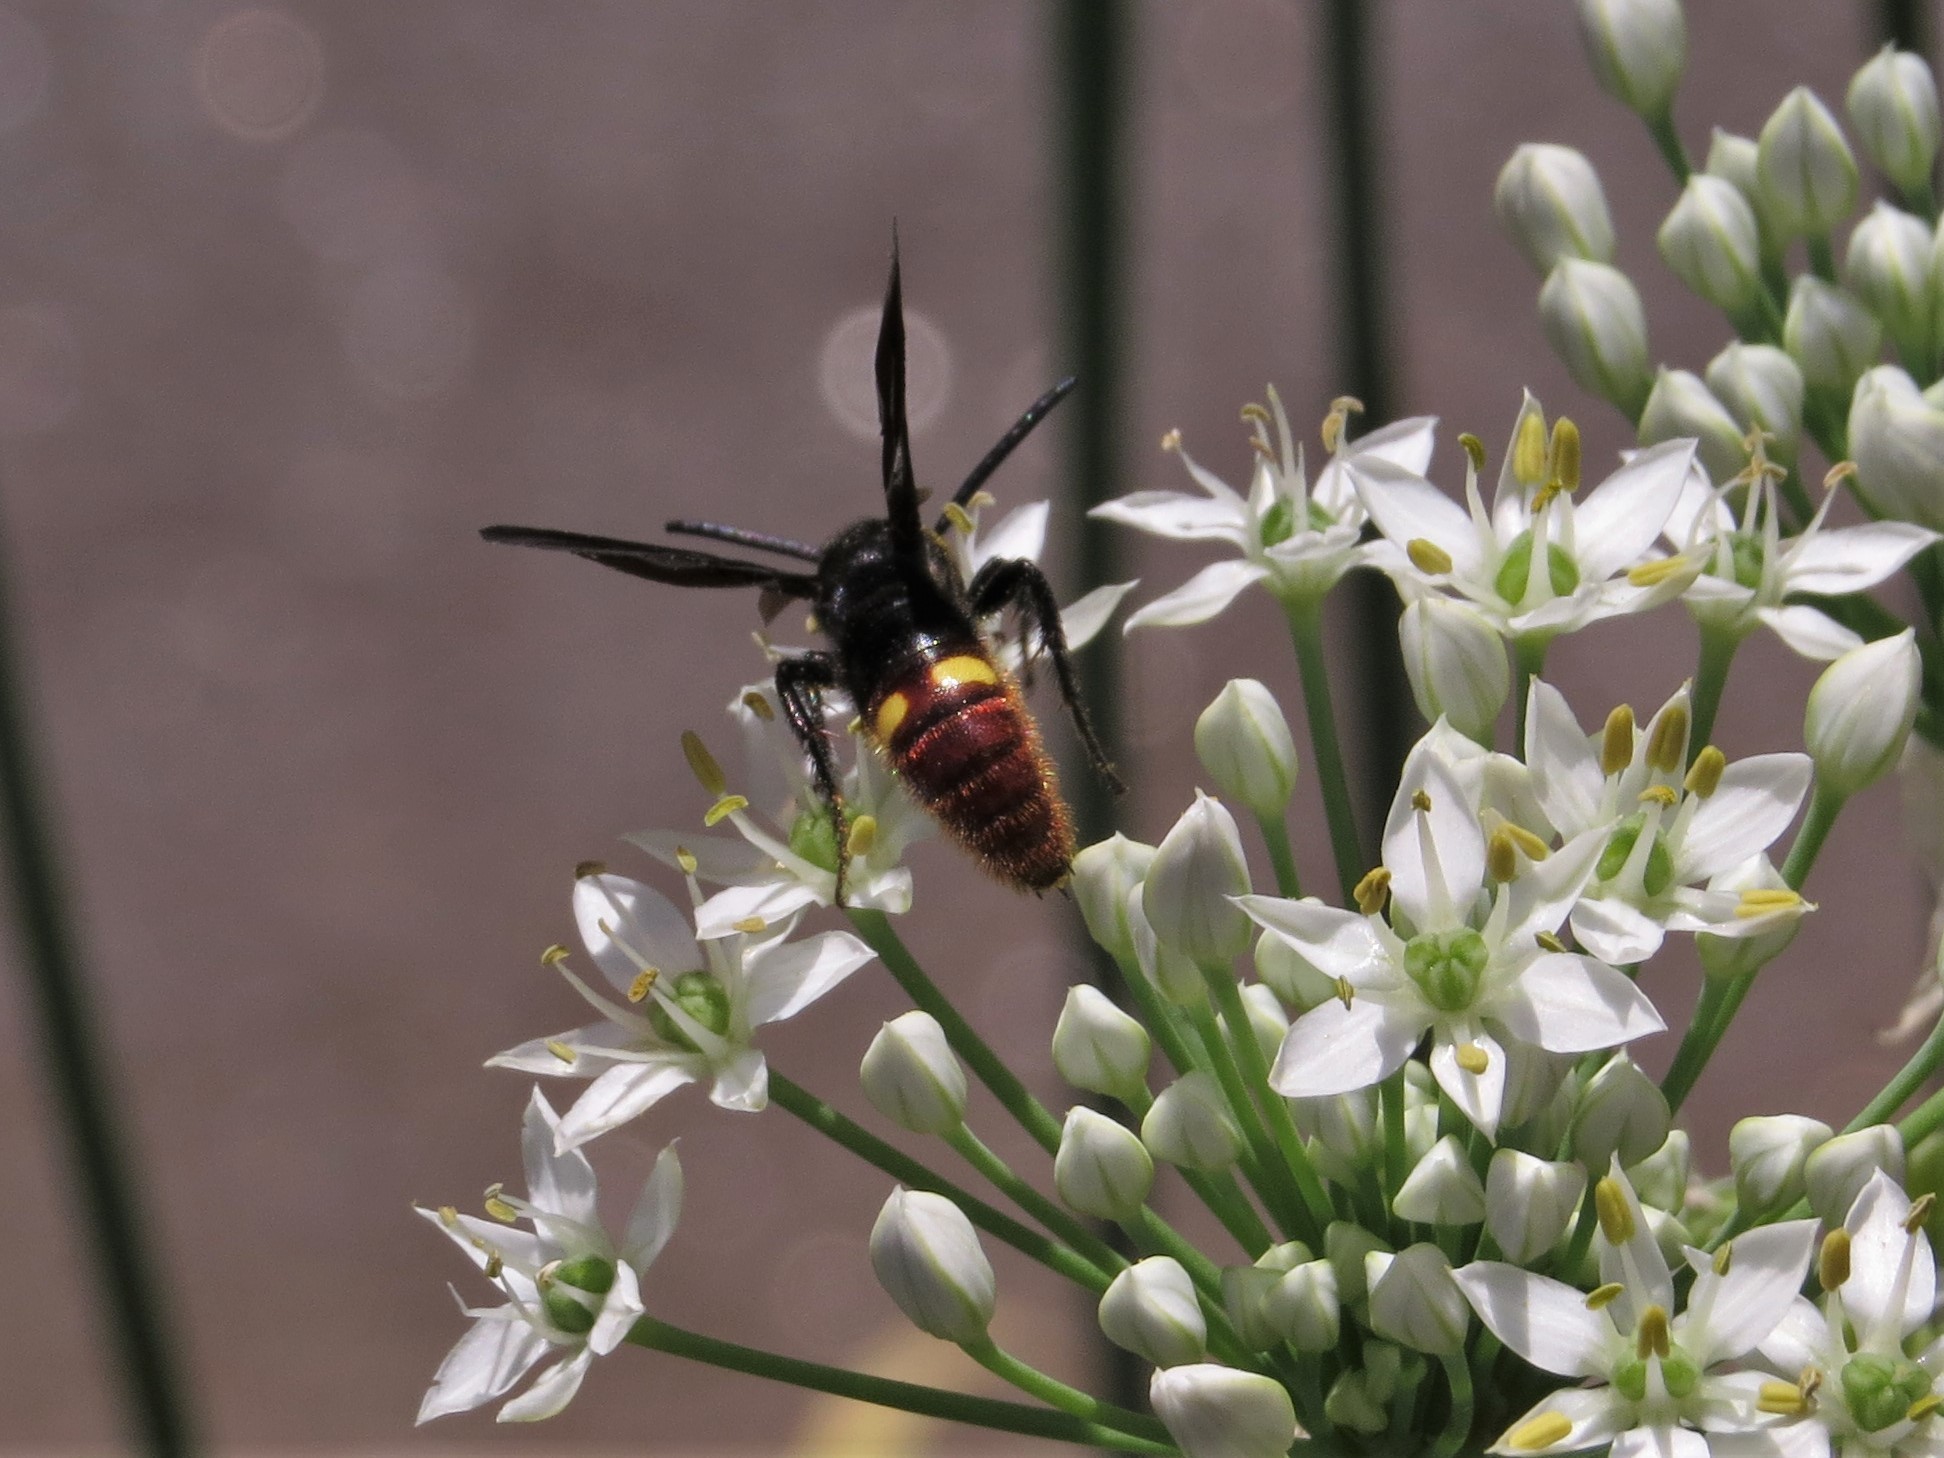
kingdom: Animalia
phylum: Arthropoda
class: Insecta
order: Hymenoptera
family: Scoliidae
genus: Scolia
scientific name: Scolia dubia
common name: Blue-winged scoliid wasp
